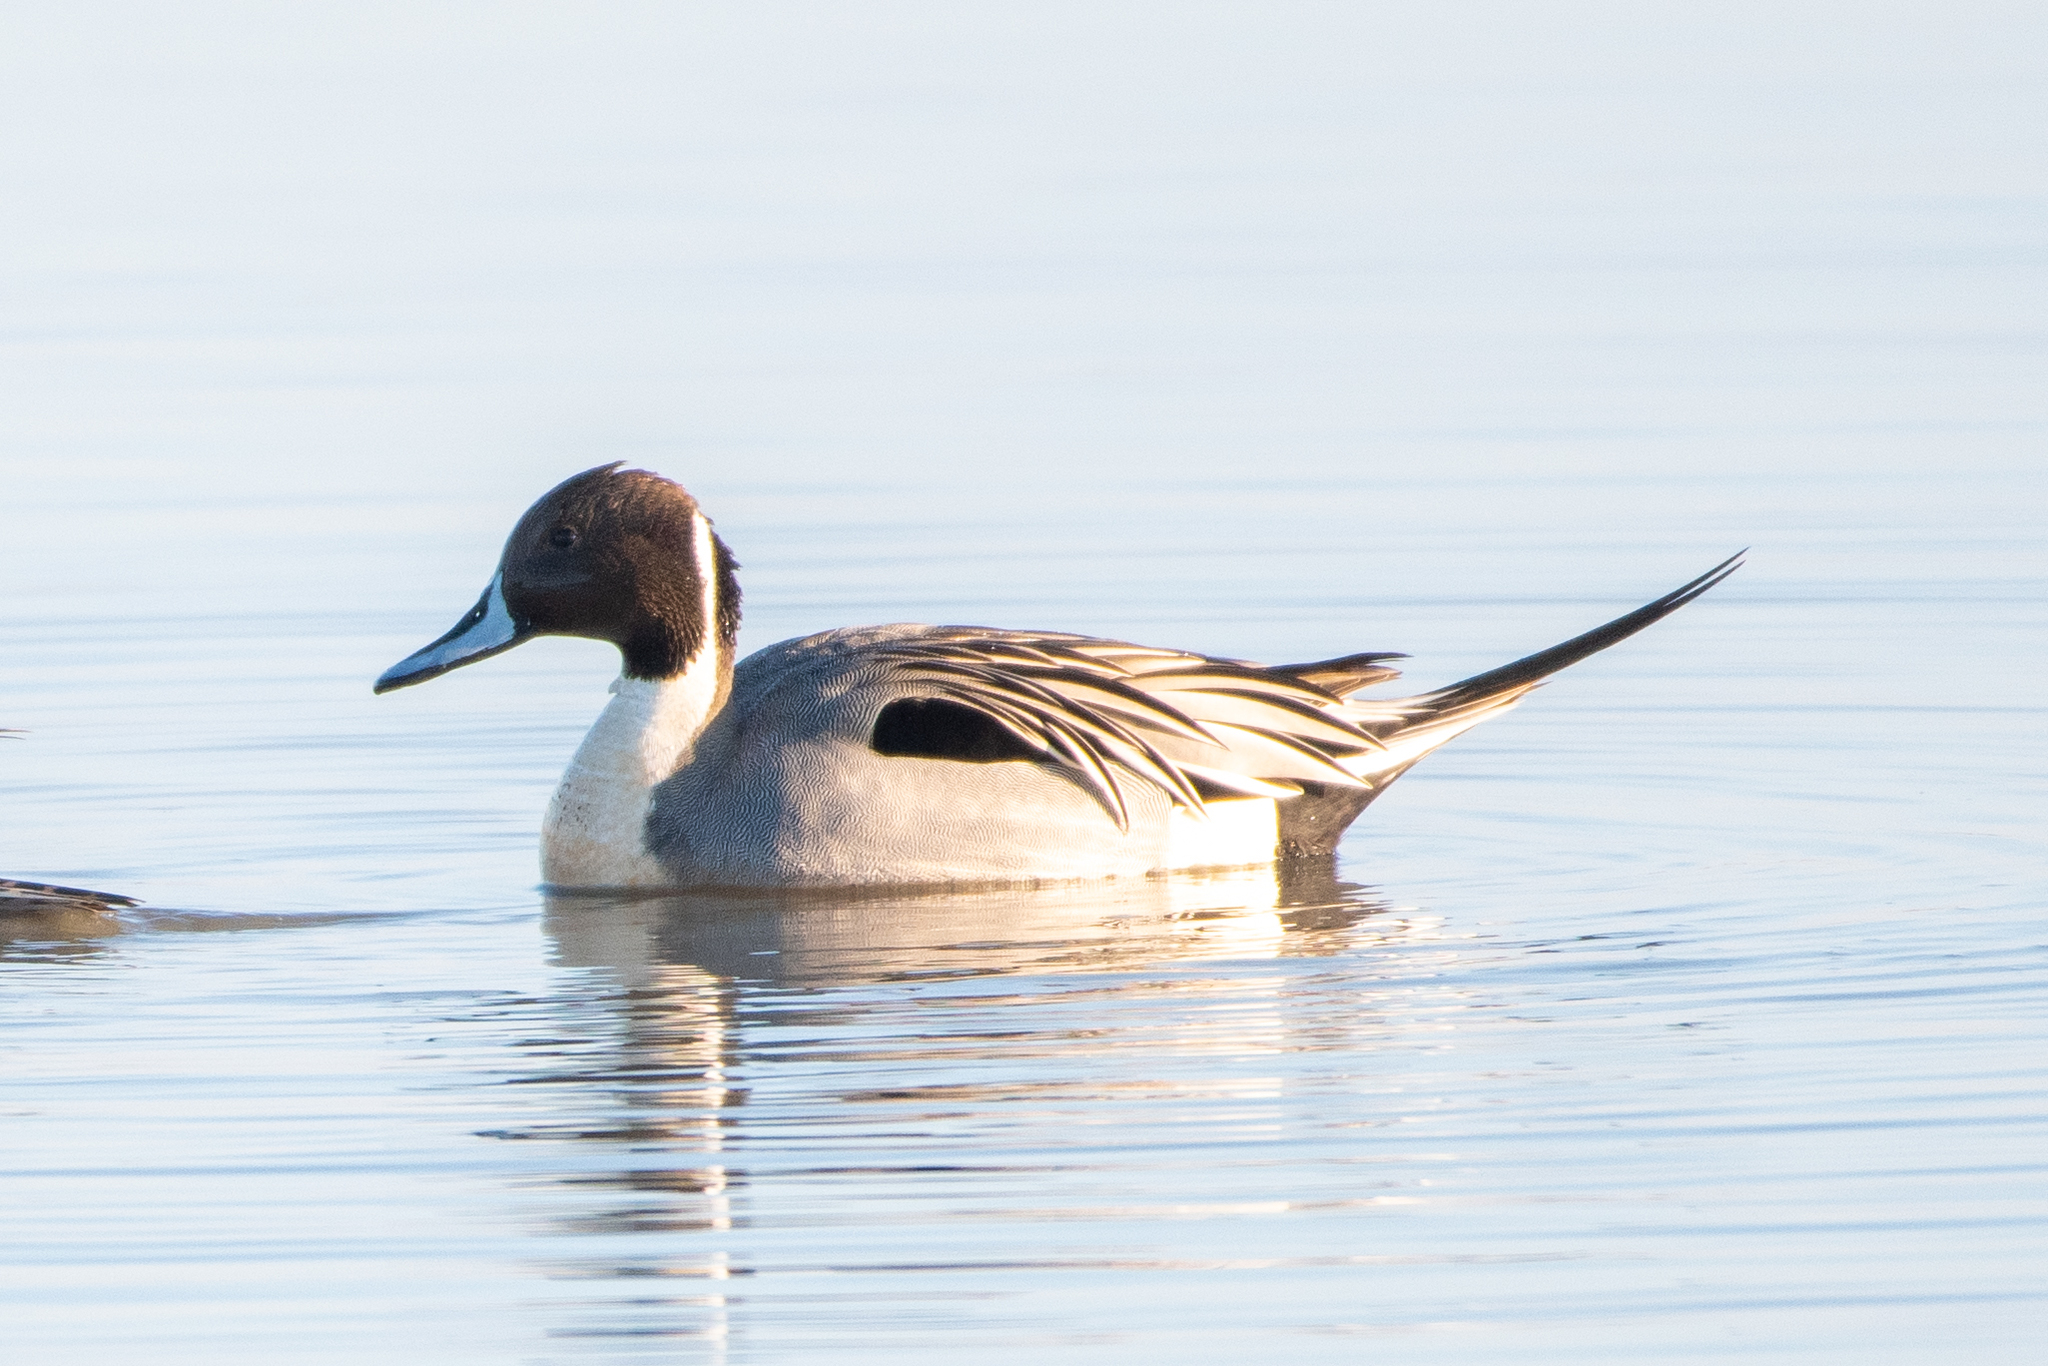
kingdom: Animalia
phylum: Chordata
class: Aves
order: Anseriformes
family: Anatidae
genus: Anas
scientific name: Anas acuta
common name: Northern pintail
